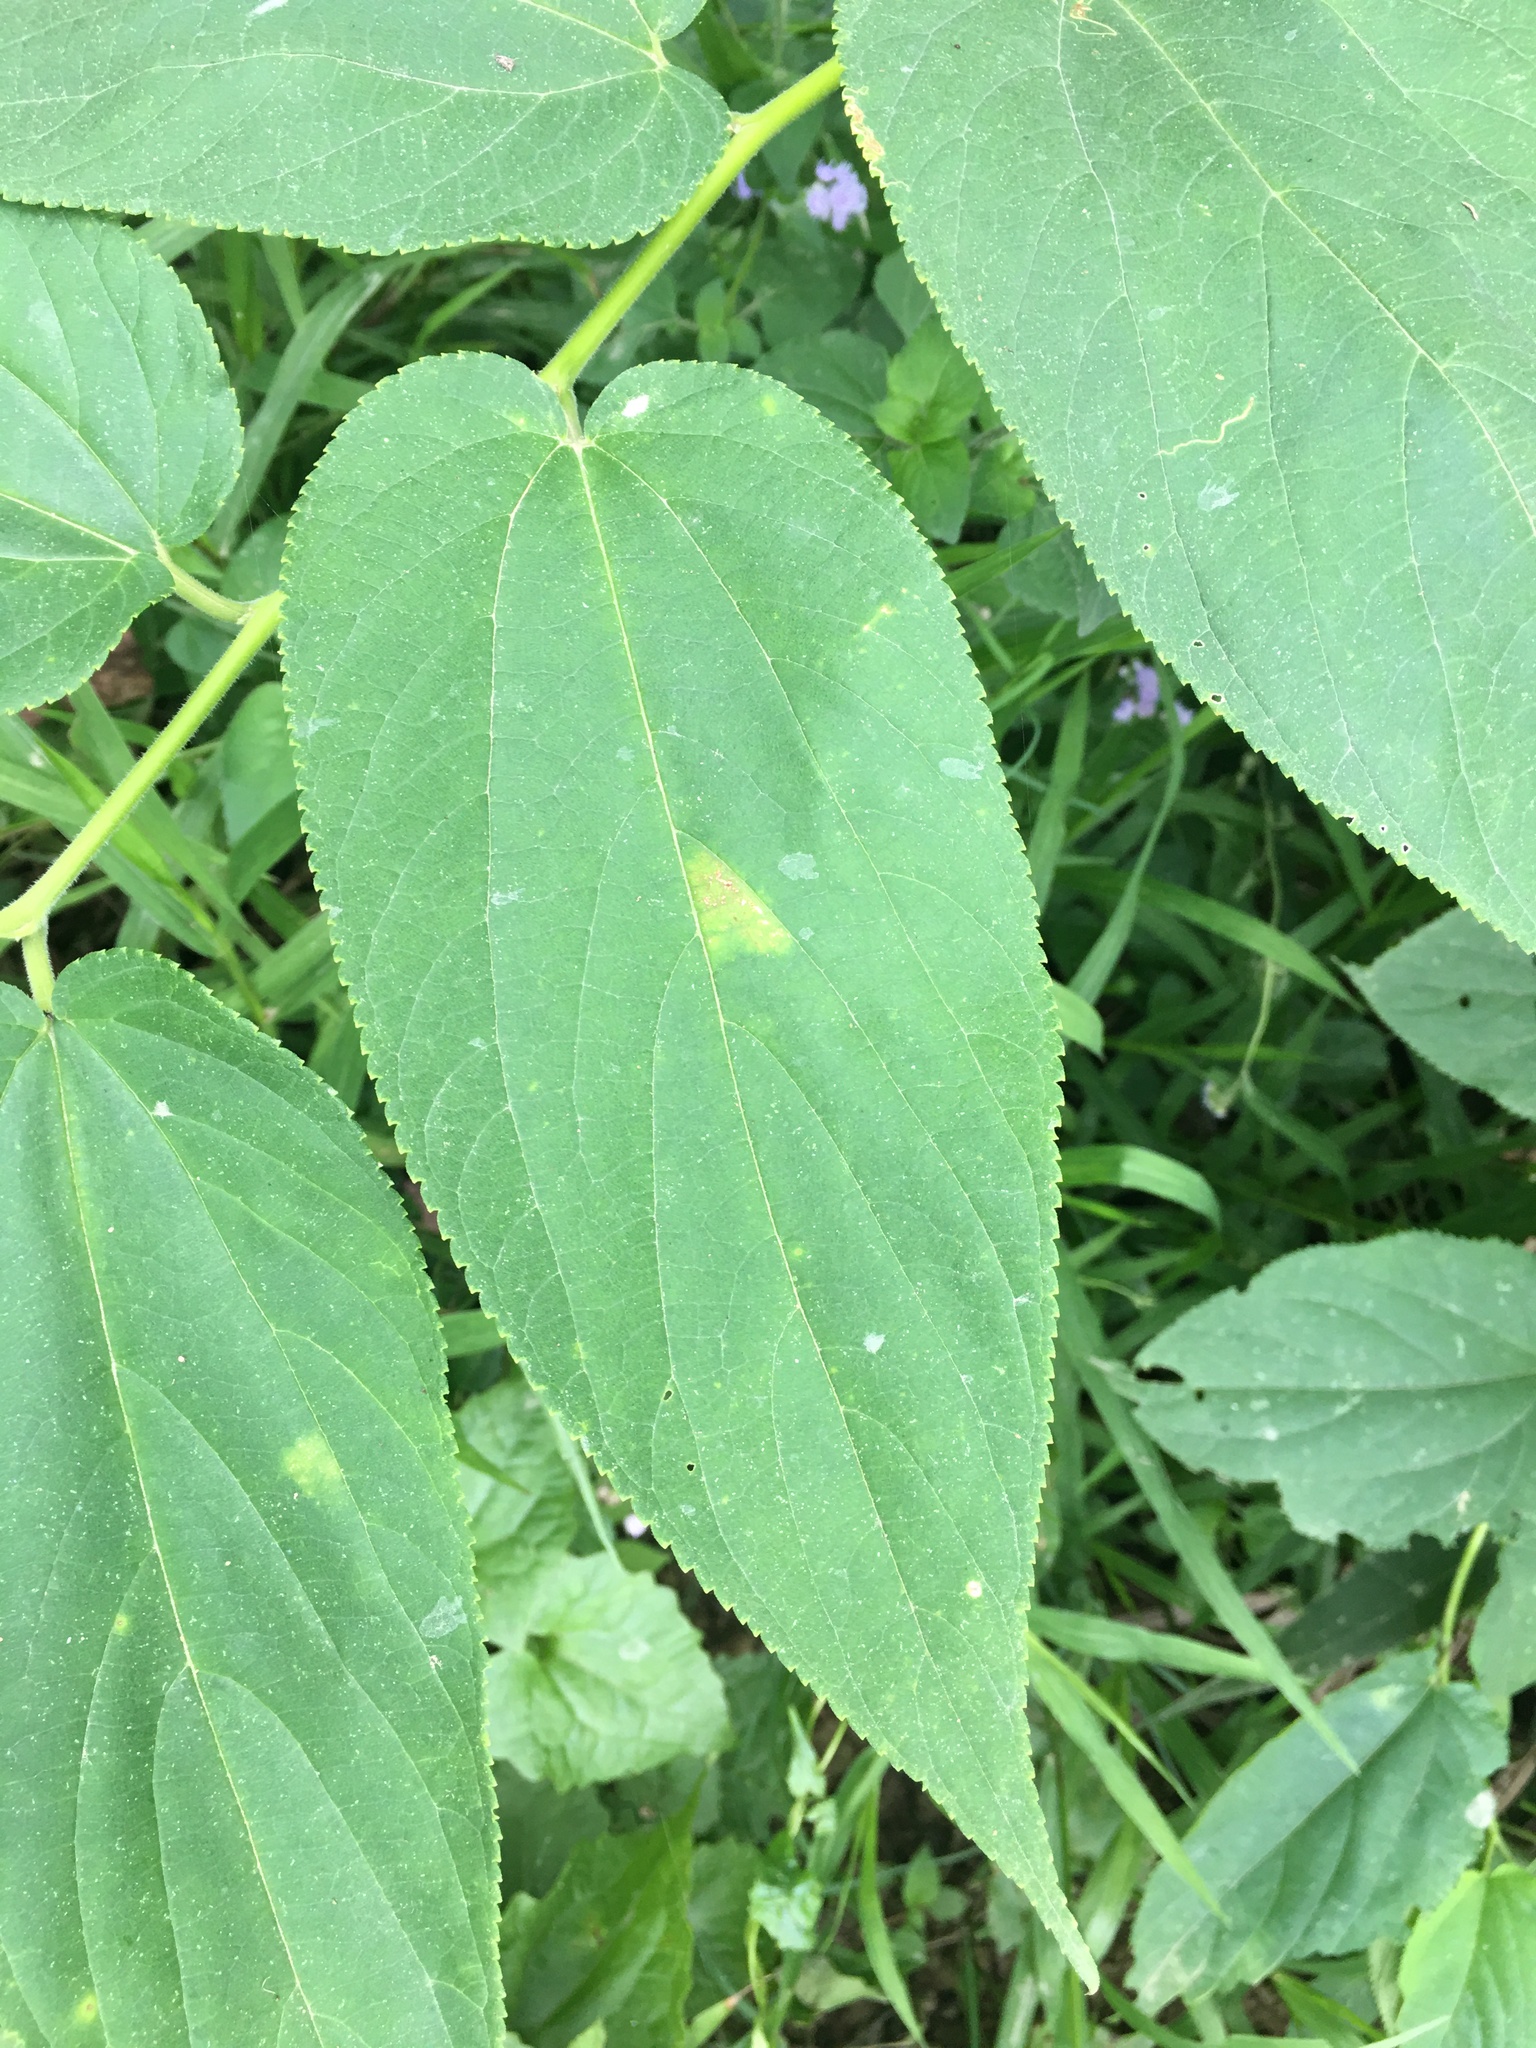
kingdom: Plantae
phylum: Tracheophyta
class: Magnoliopsida
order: Rosales
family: Cannabaceae
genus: Trema
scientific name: Trema orientale
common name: Indian charcoal tree
